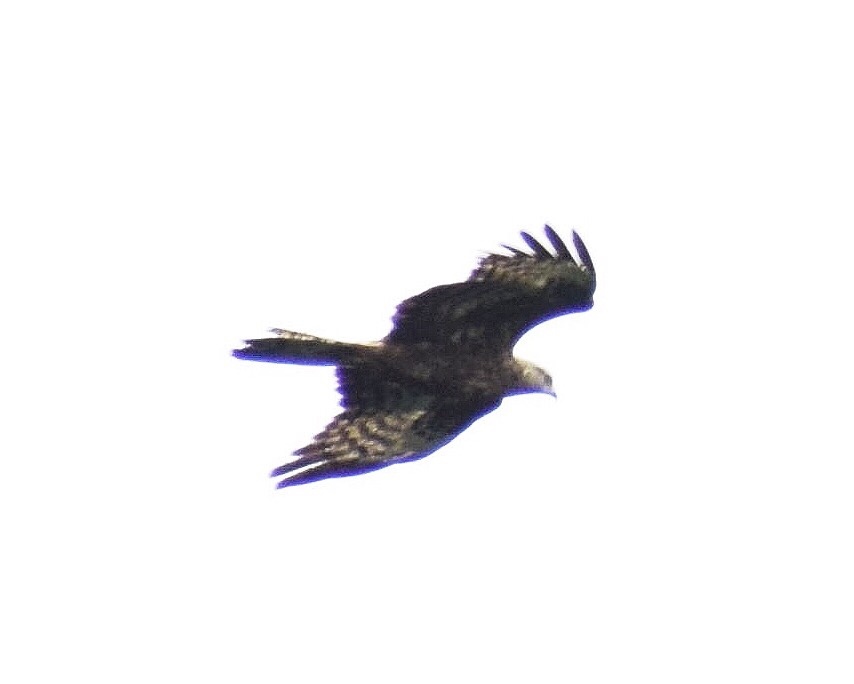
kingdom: Animalia
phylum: Chordata
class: Aves
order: Accipitriformes
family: Accipitridae
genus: Pernis
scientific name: Pernis apivorus
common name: European honey buzzard
